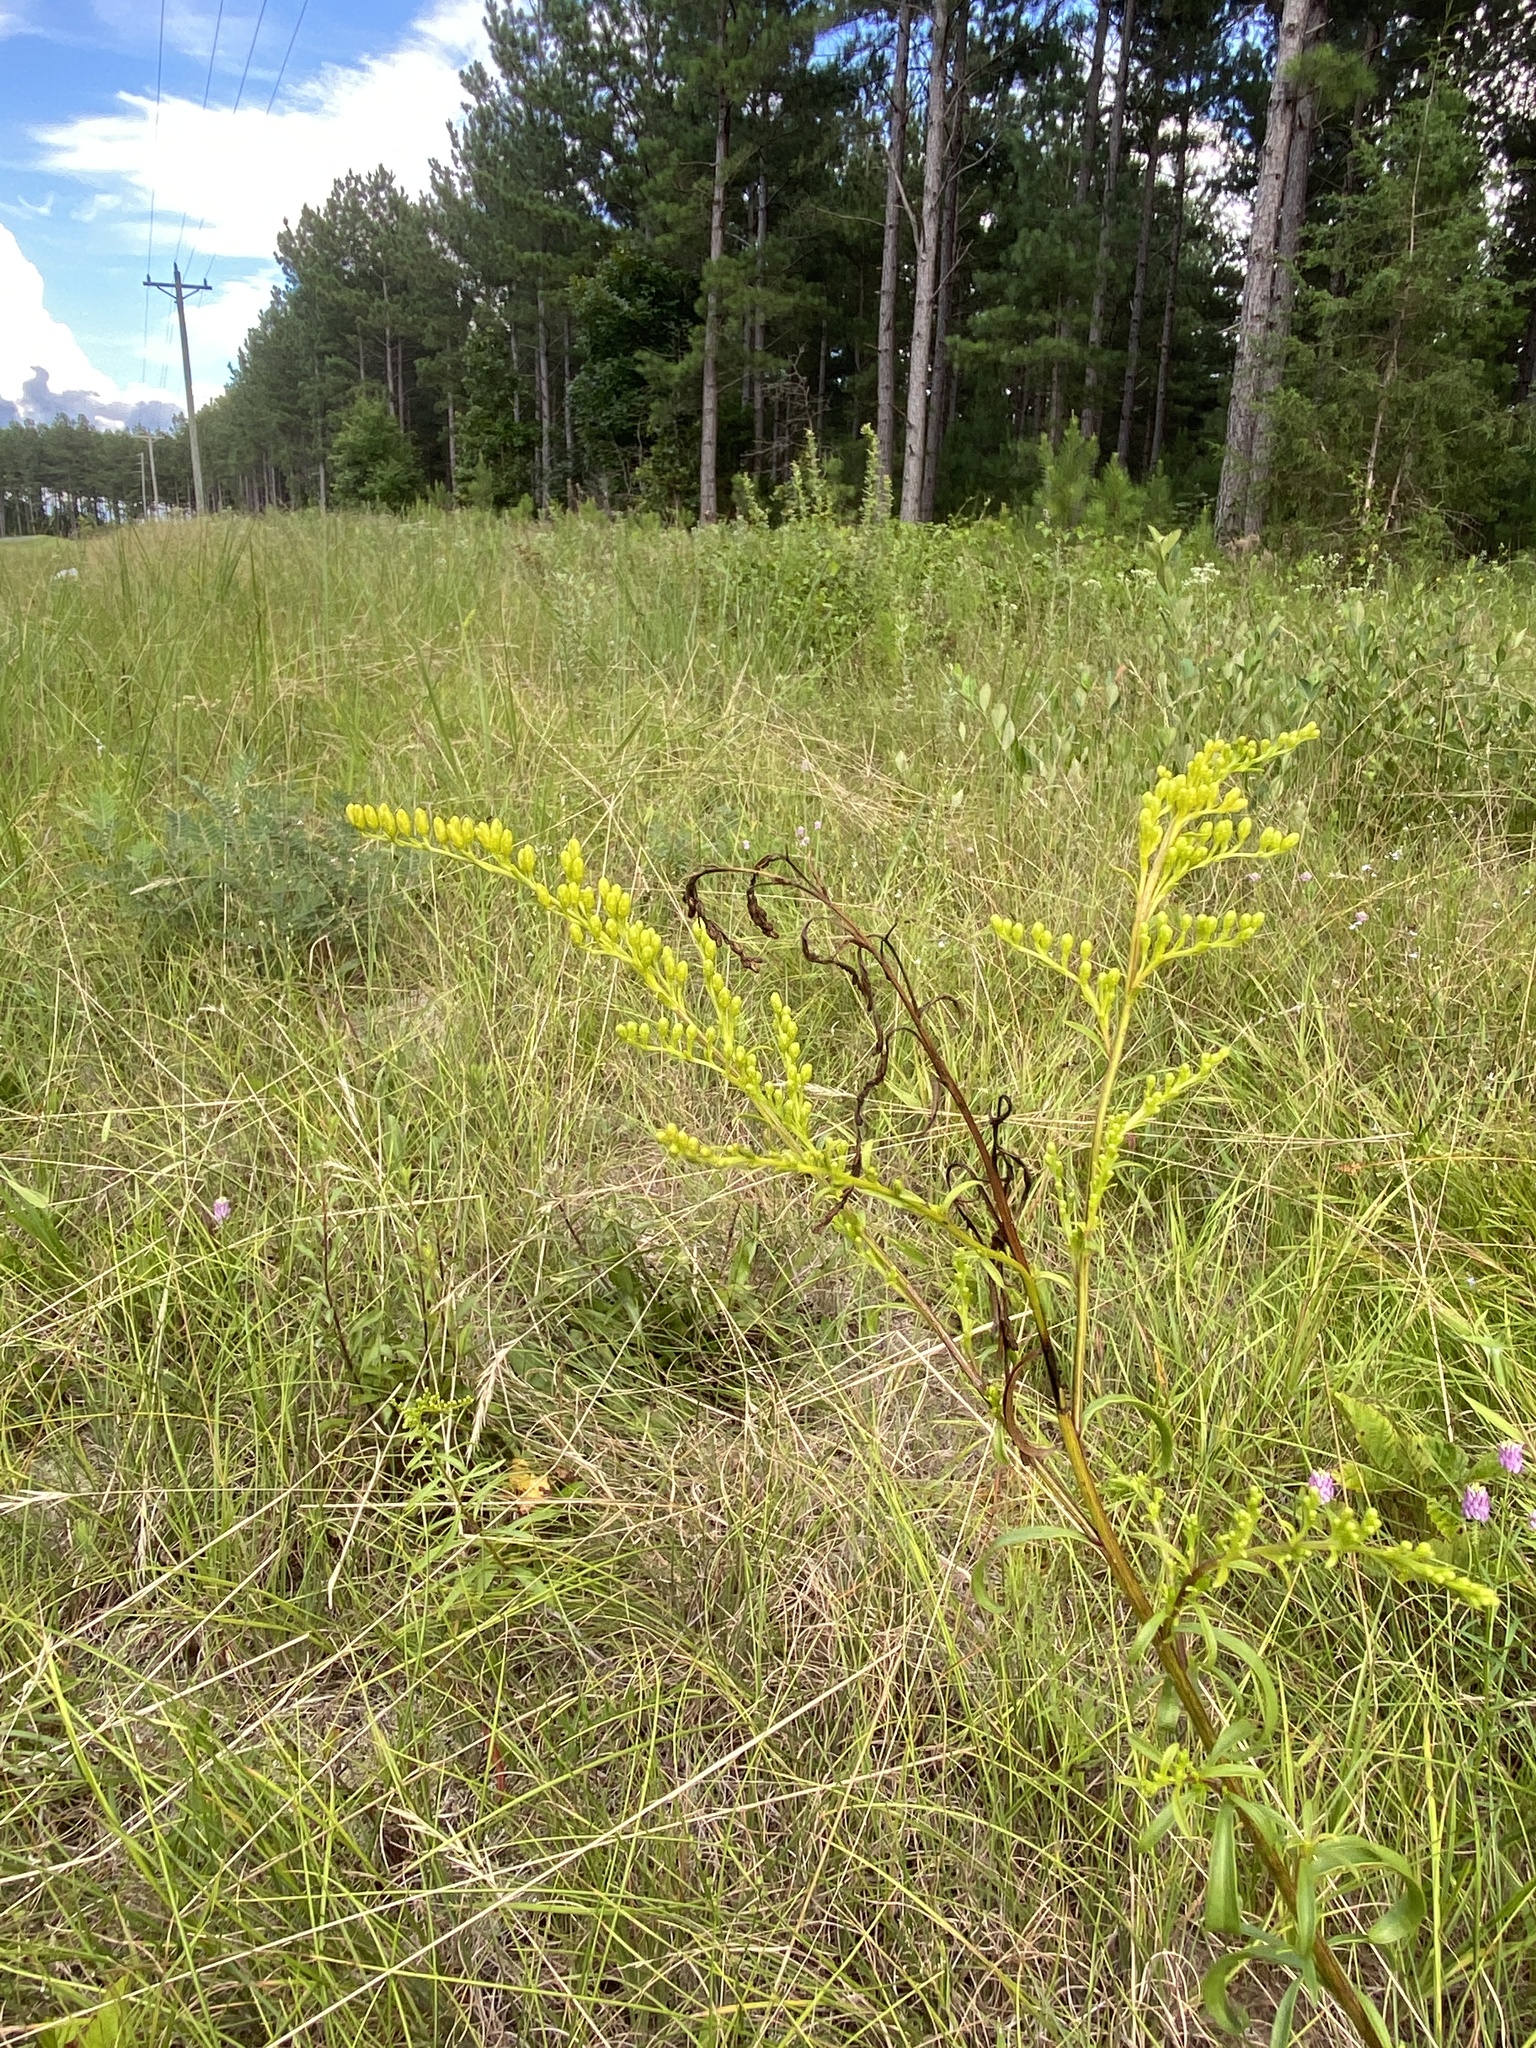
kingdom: Plantae
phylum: Tracheophyta
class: Magnoliopsida
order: Asterales
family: Asteraceae
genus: Solidago
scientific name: Solidago pinetorum
